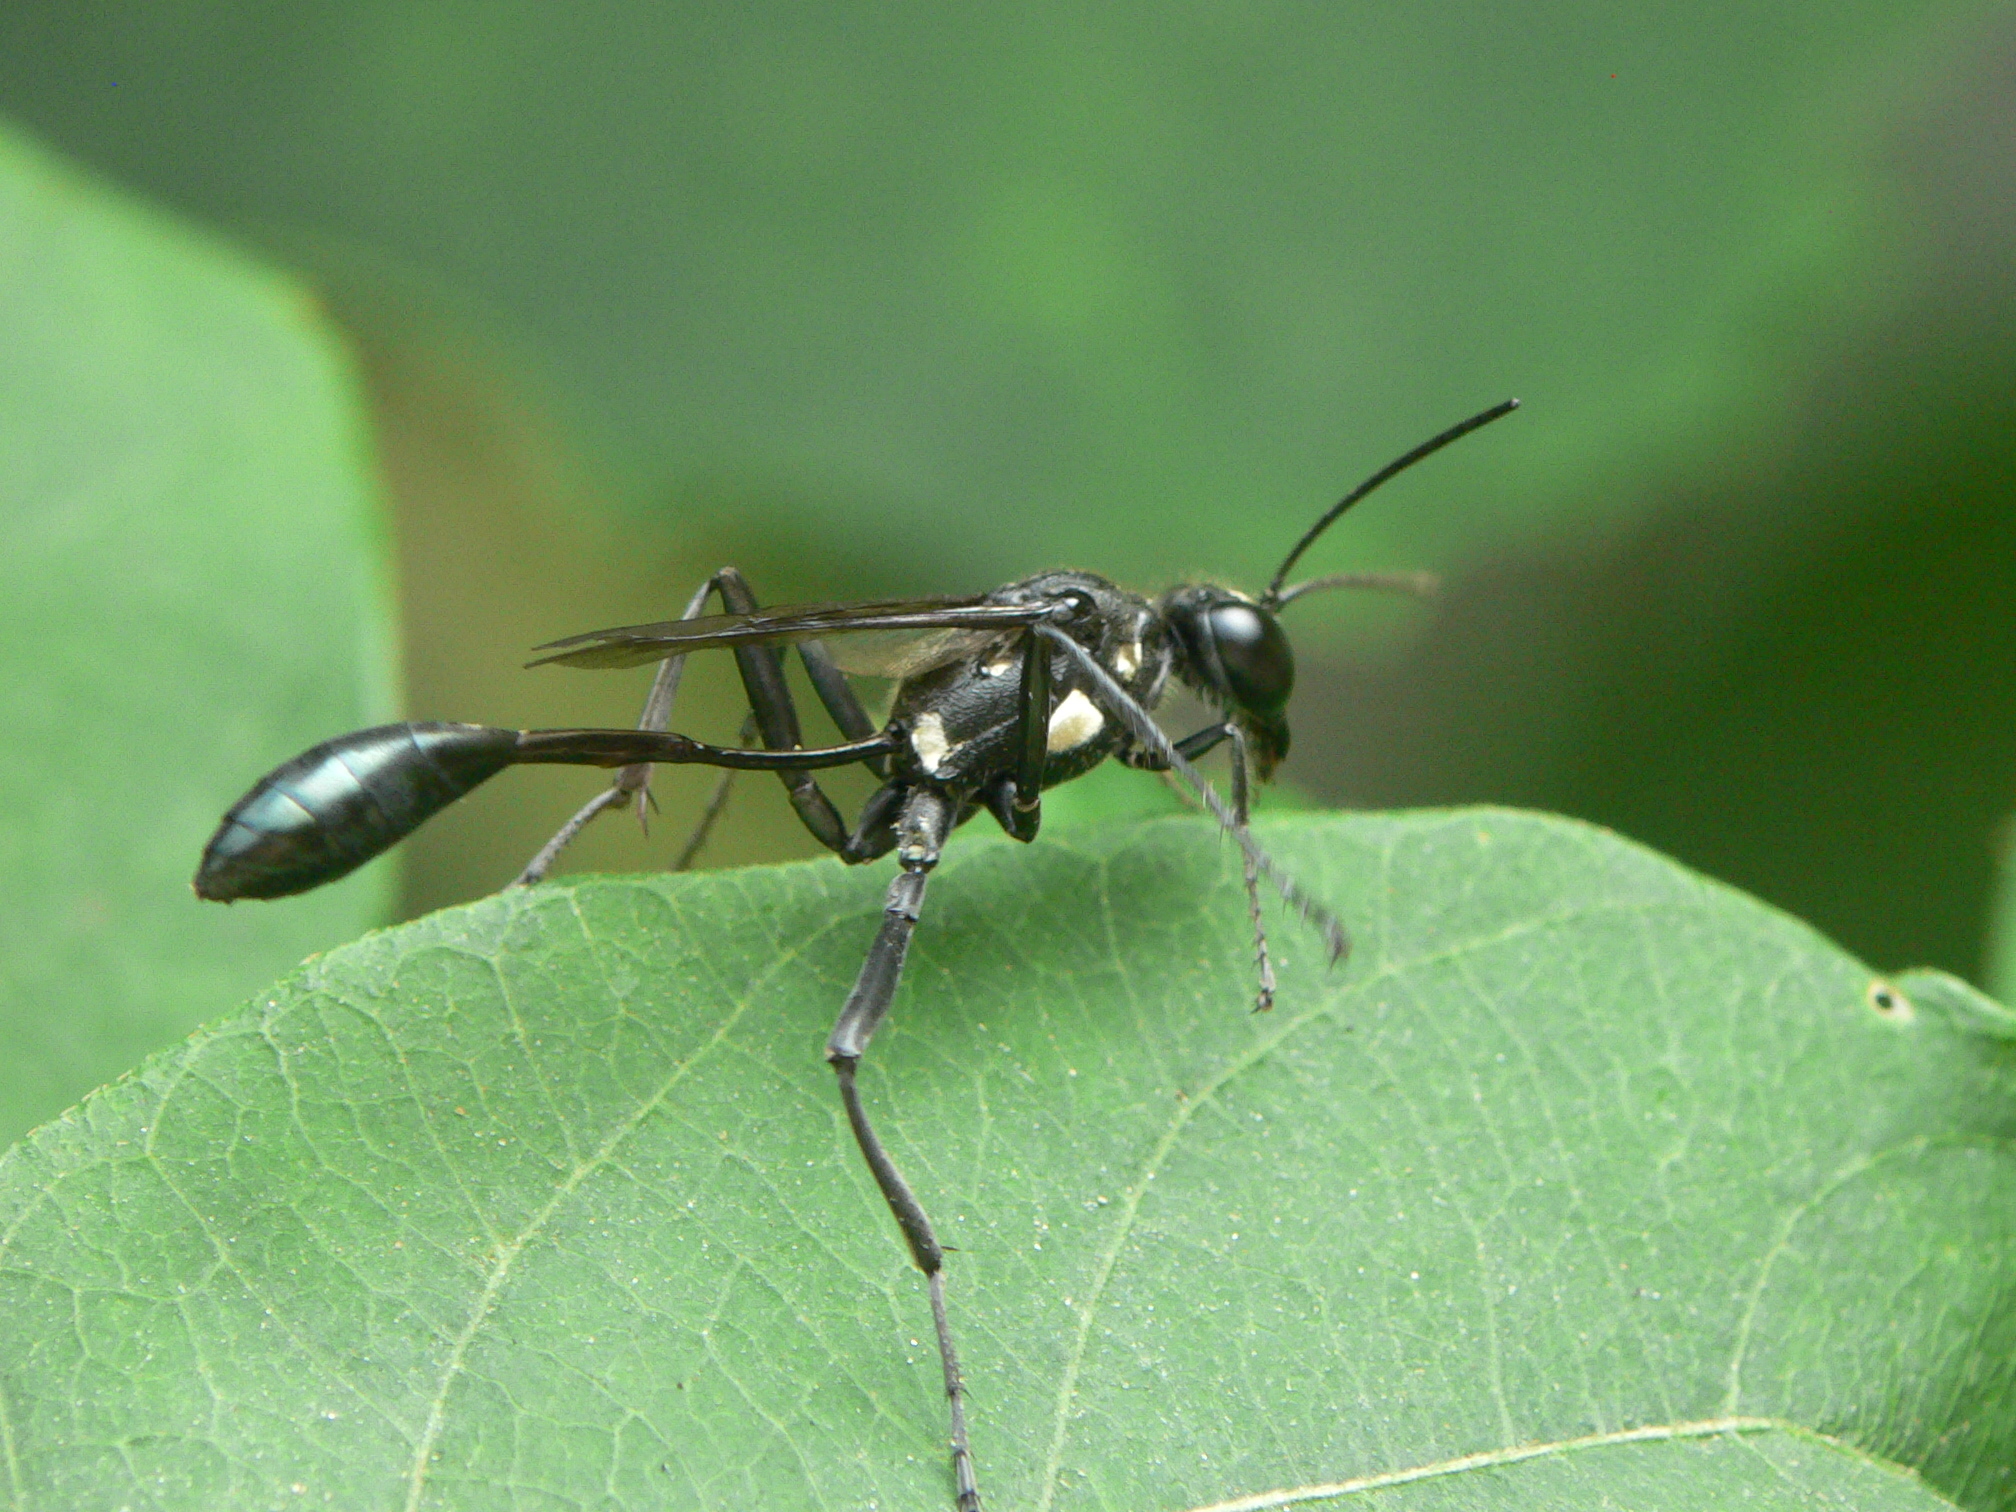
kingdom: Animalia
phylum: Arthropoda
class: Insecta
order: Hymenoptera
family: Sphecidae
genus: Eremnophila
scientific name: Eremnophila aureonotata
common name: Gold-marked thread-waisted wasp
